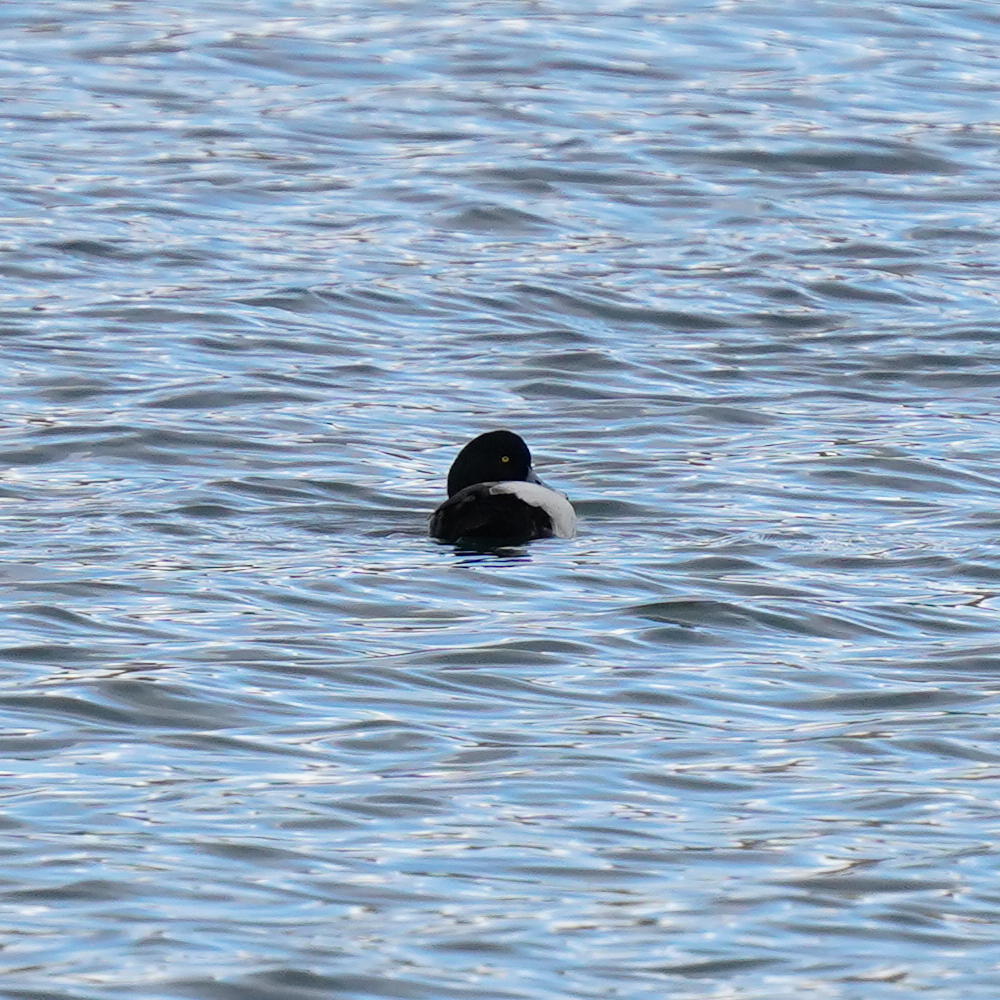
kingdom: Animalia
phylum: Chordata
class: Aves
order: Anseriformes
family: Anatidae
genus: Aythya
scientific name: Aythya affinis
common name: Lesser scaup
